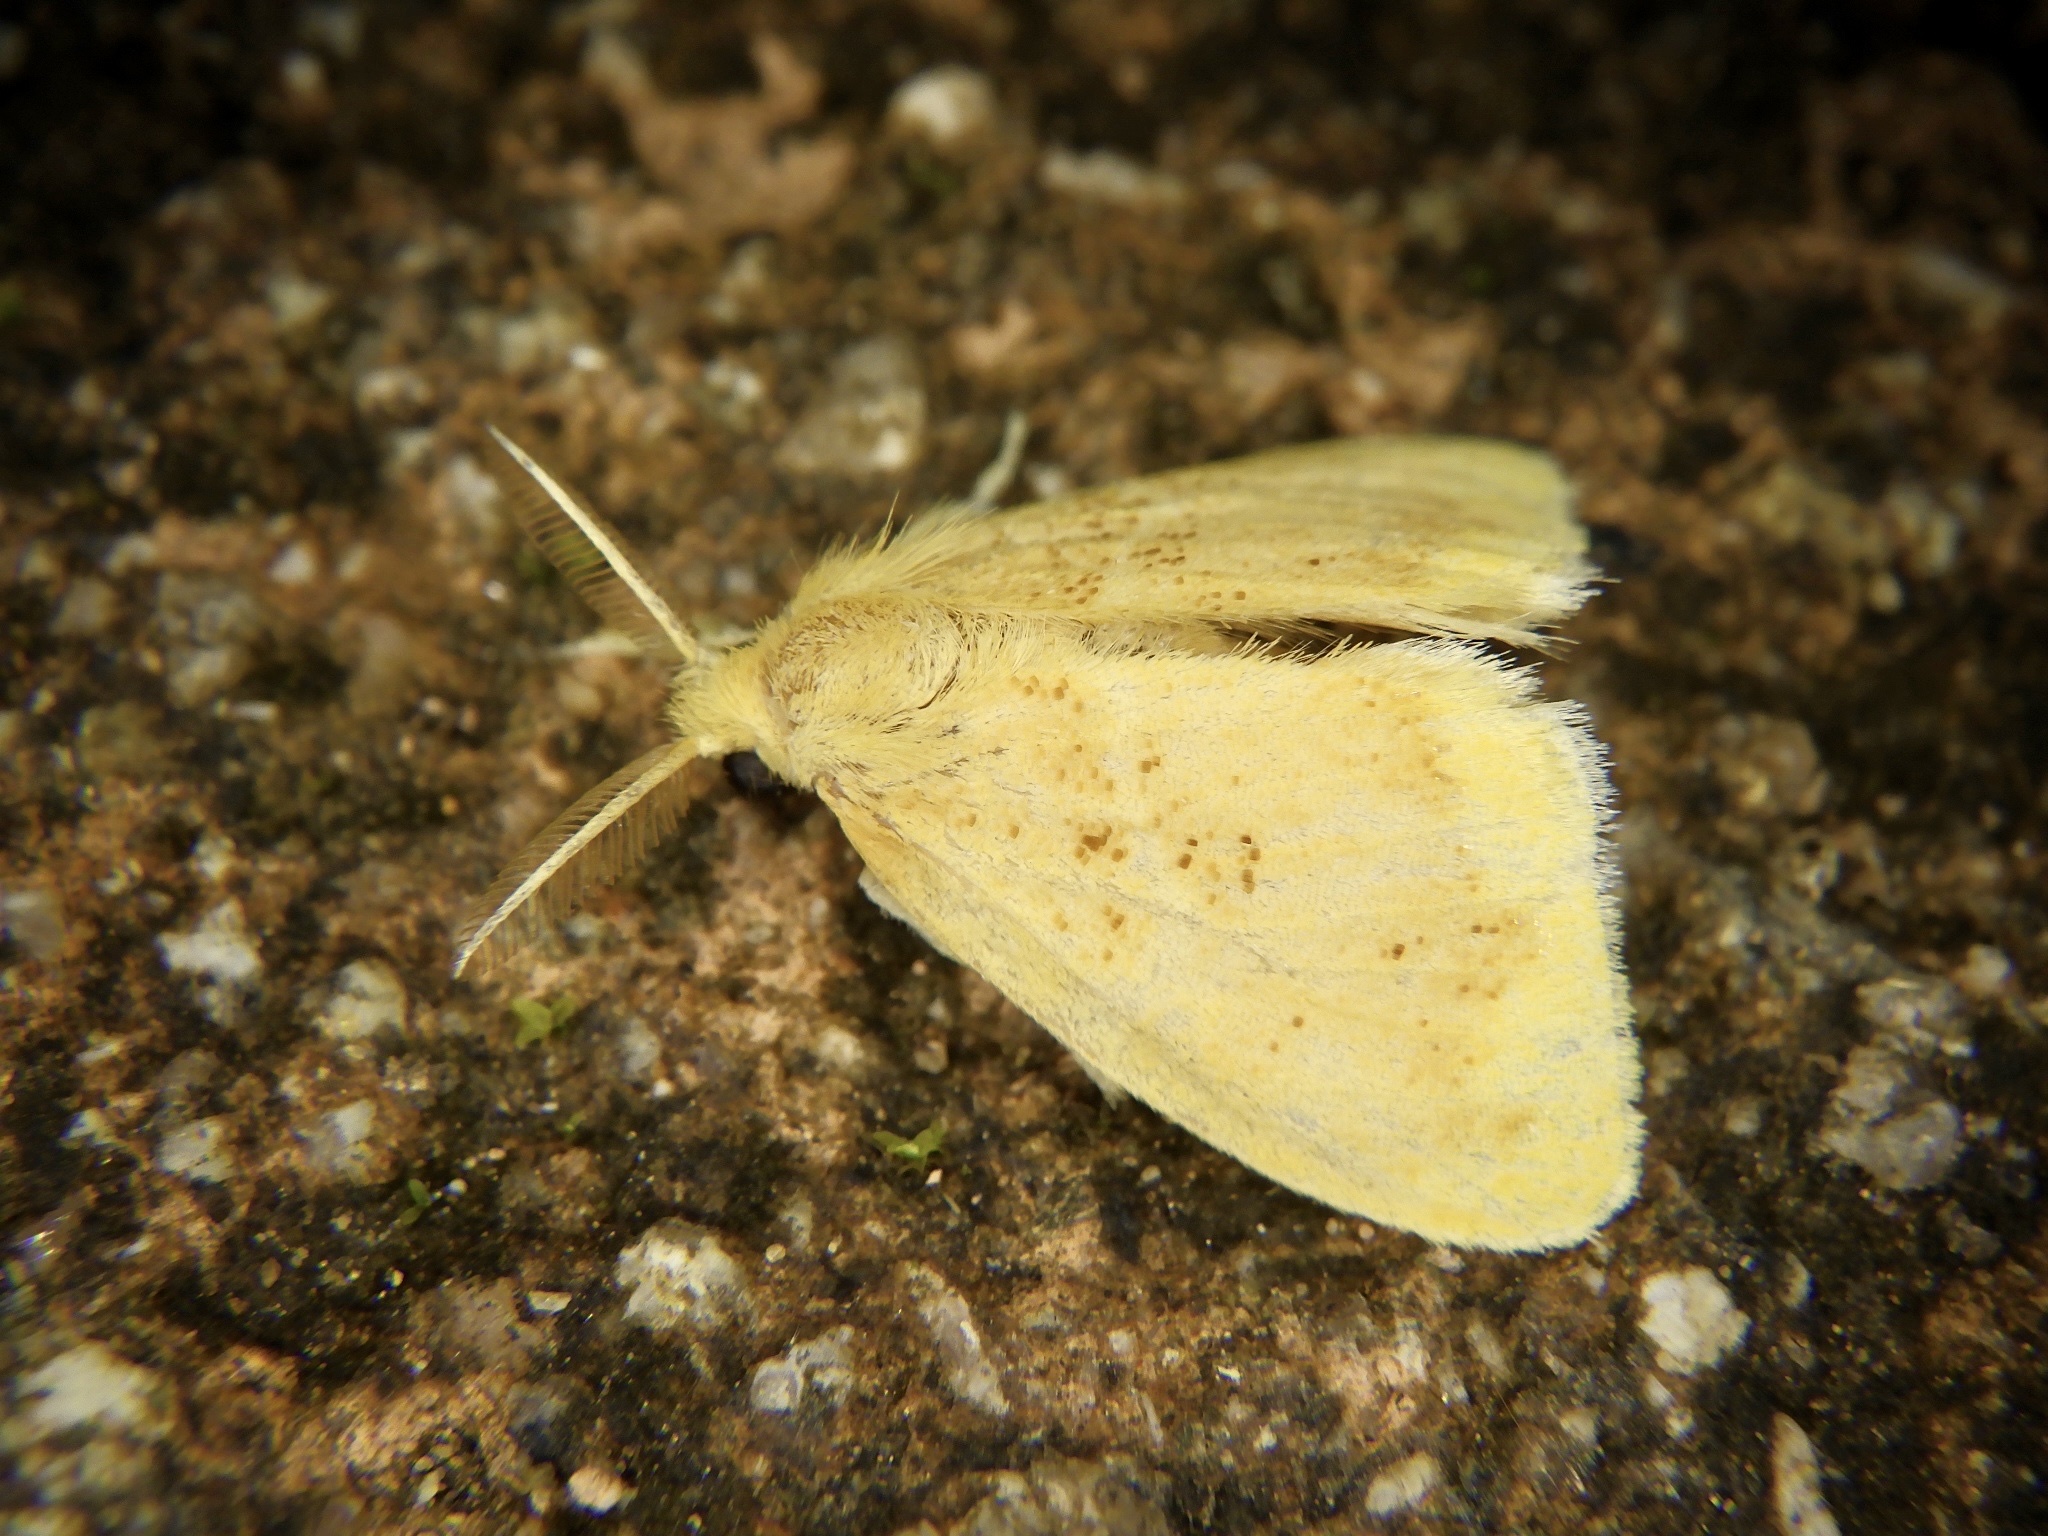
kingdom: Animalia
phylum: Arthropoda
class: Insecta
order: Lepidoptera
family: Erebidae
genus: Somena
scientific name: Somena
